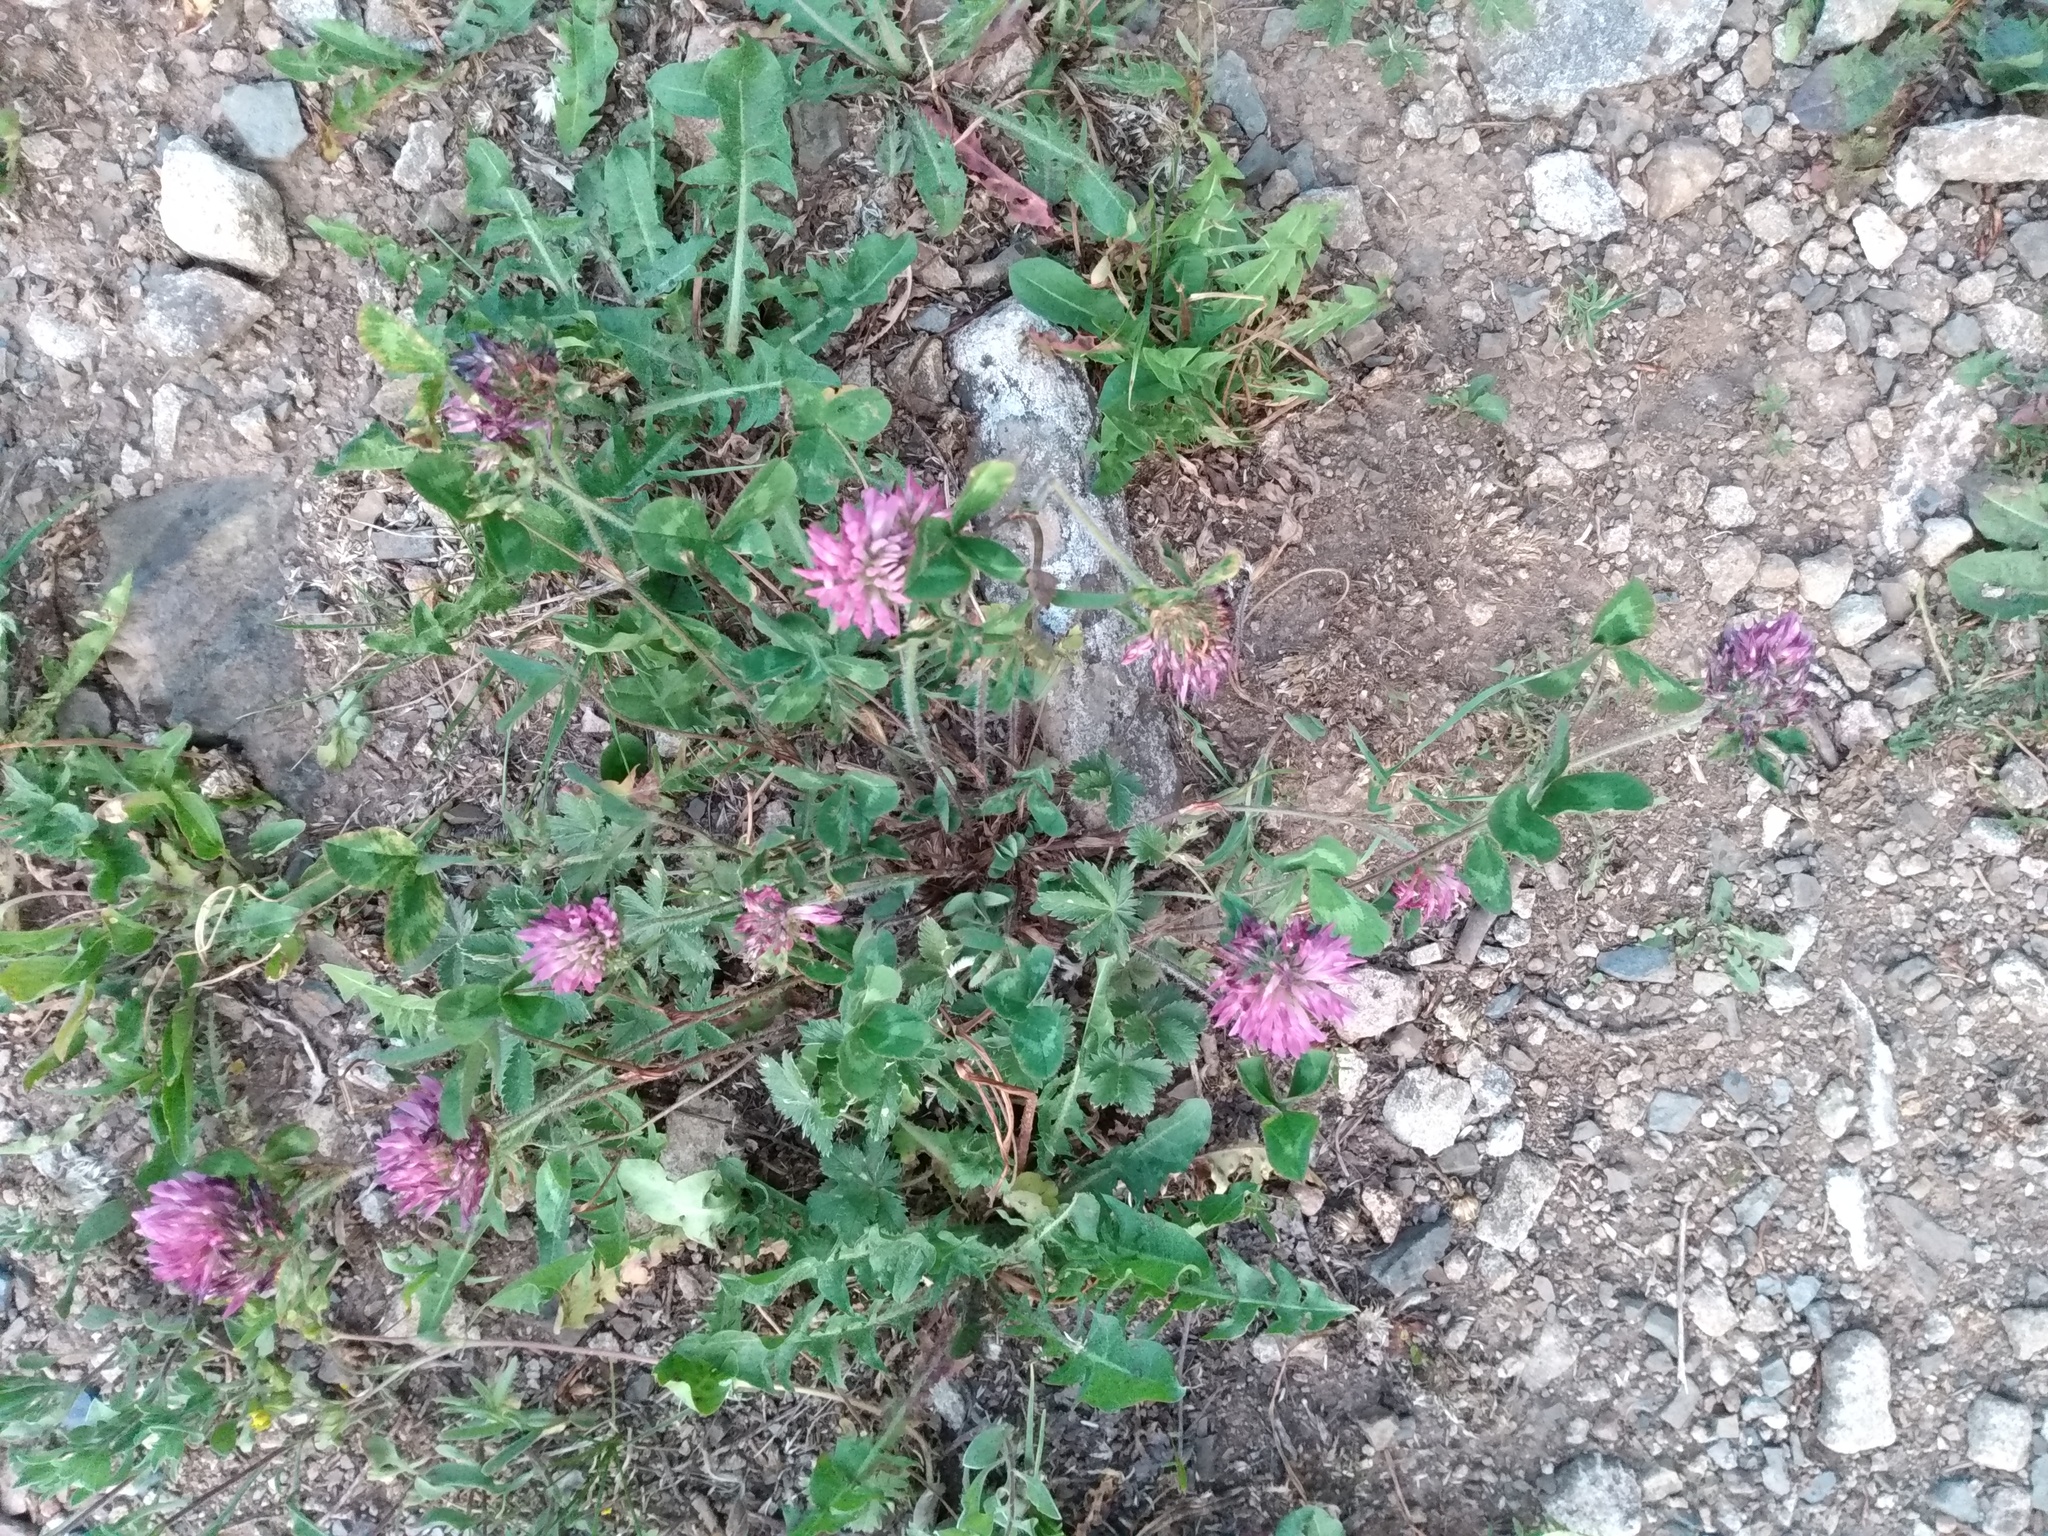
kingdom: Plantae
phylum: Tracheophyta
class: Magnoliopsida
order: Fabales
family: Fabaceae
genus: Trifolium
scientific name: Trifolium pratense
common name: Red clover
